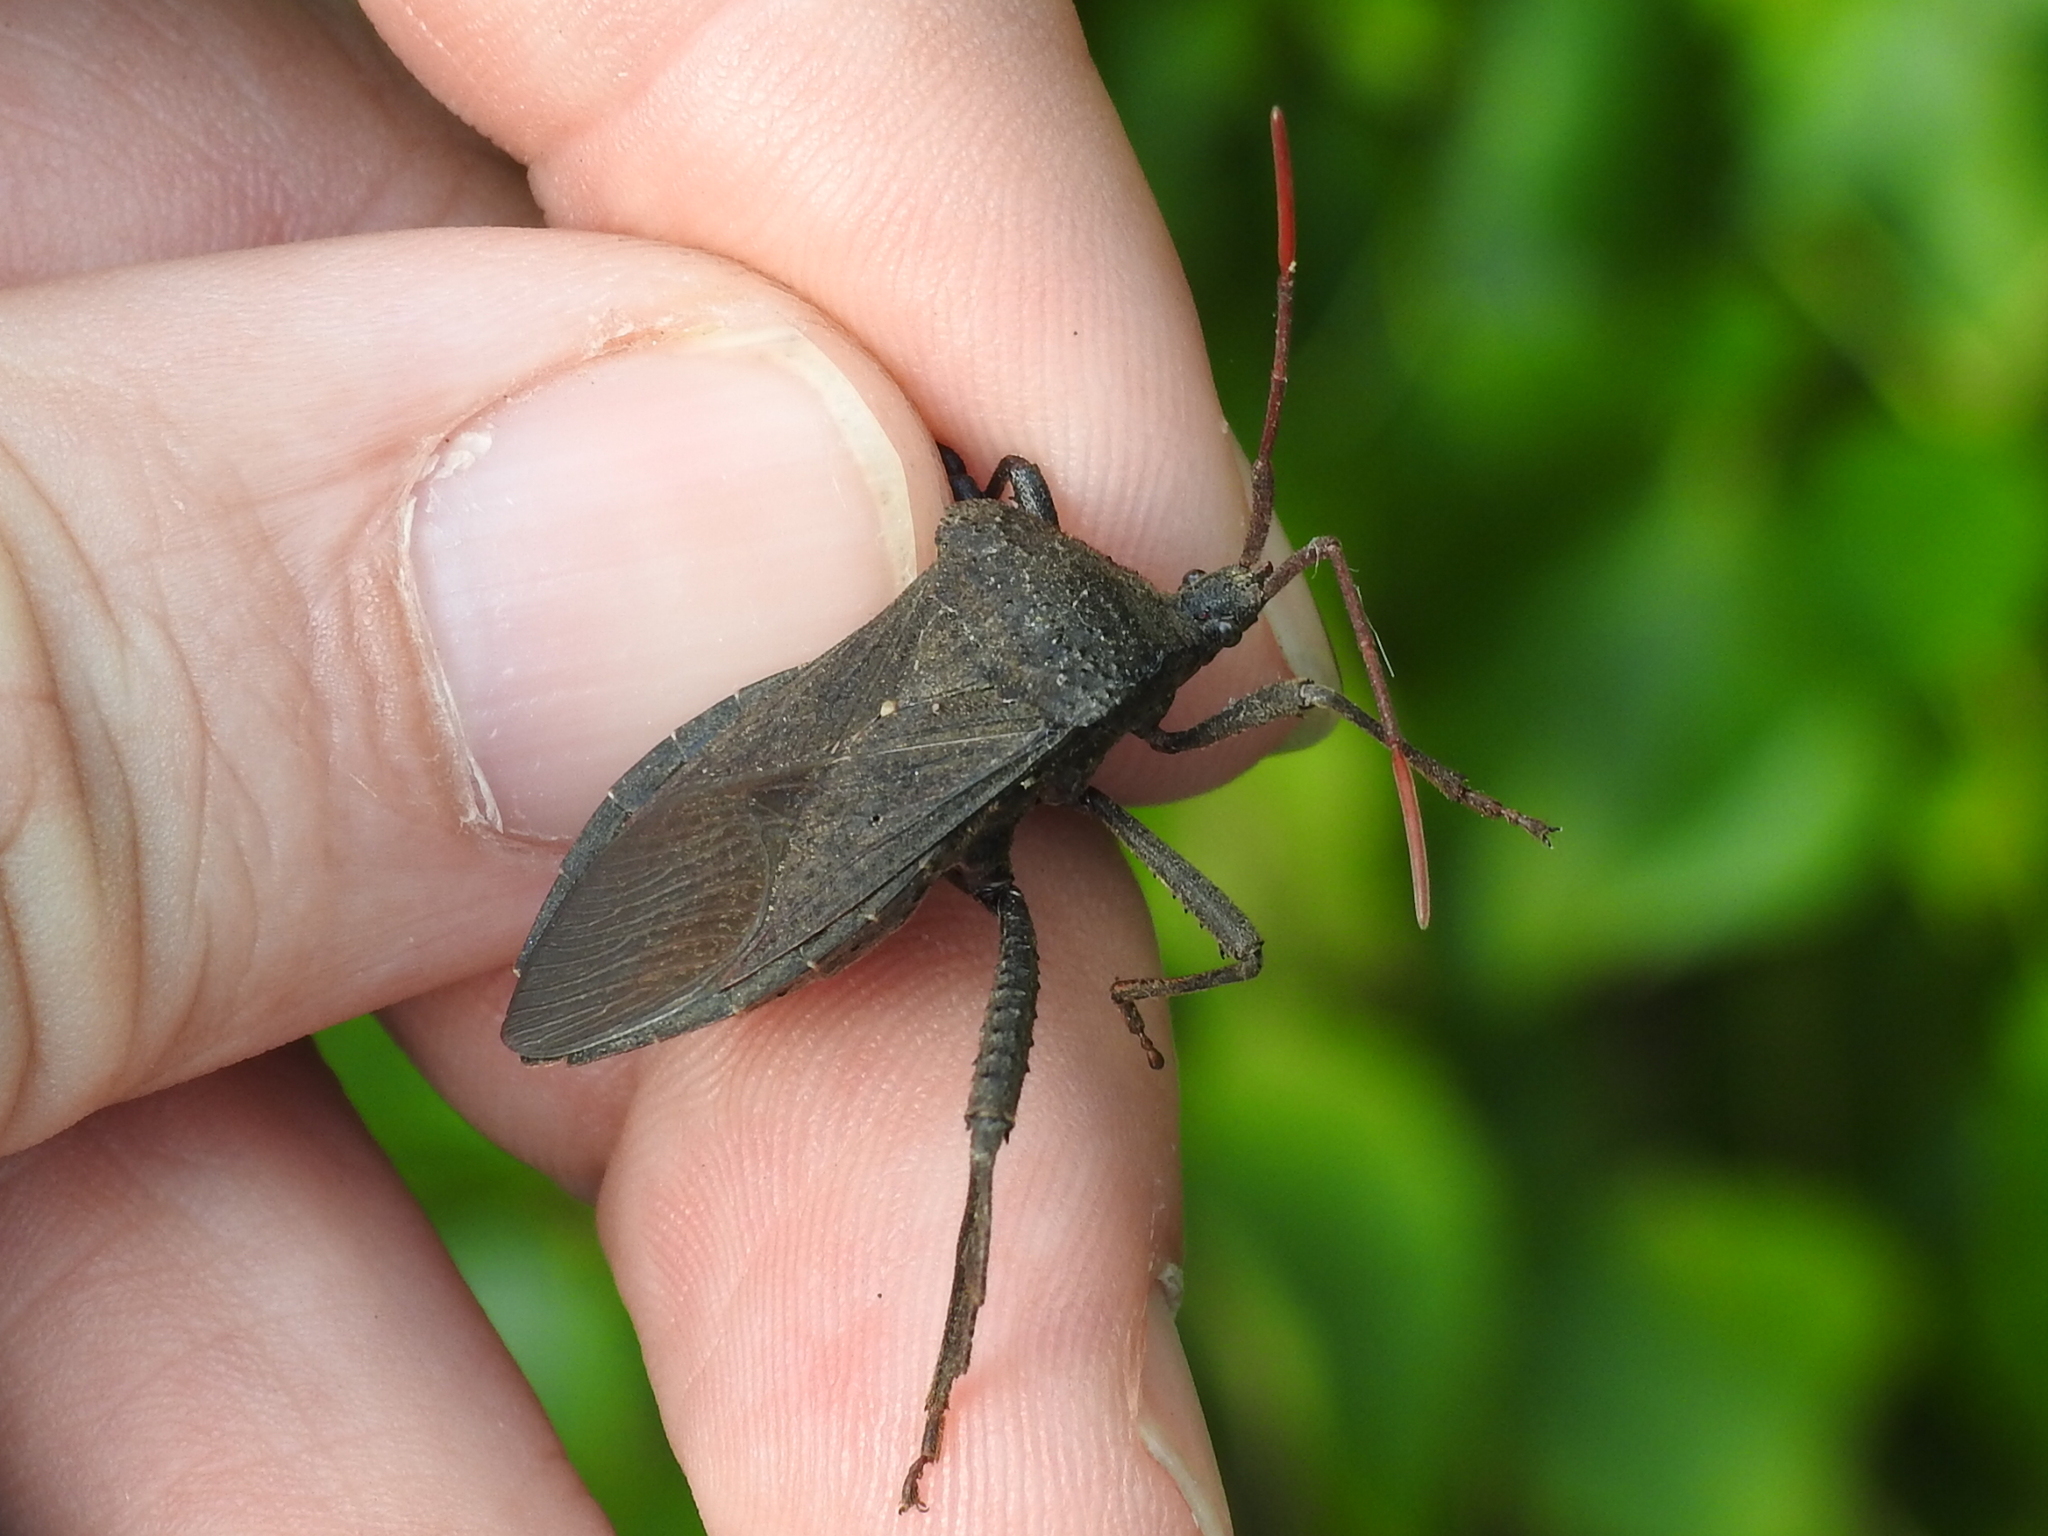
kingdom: Animalia
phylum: Arthropoda
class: Insecta
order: Hemiptera
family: Coreidae
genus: Acanthocephala
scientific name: Acanthocephala femorata
